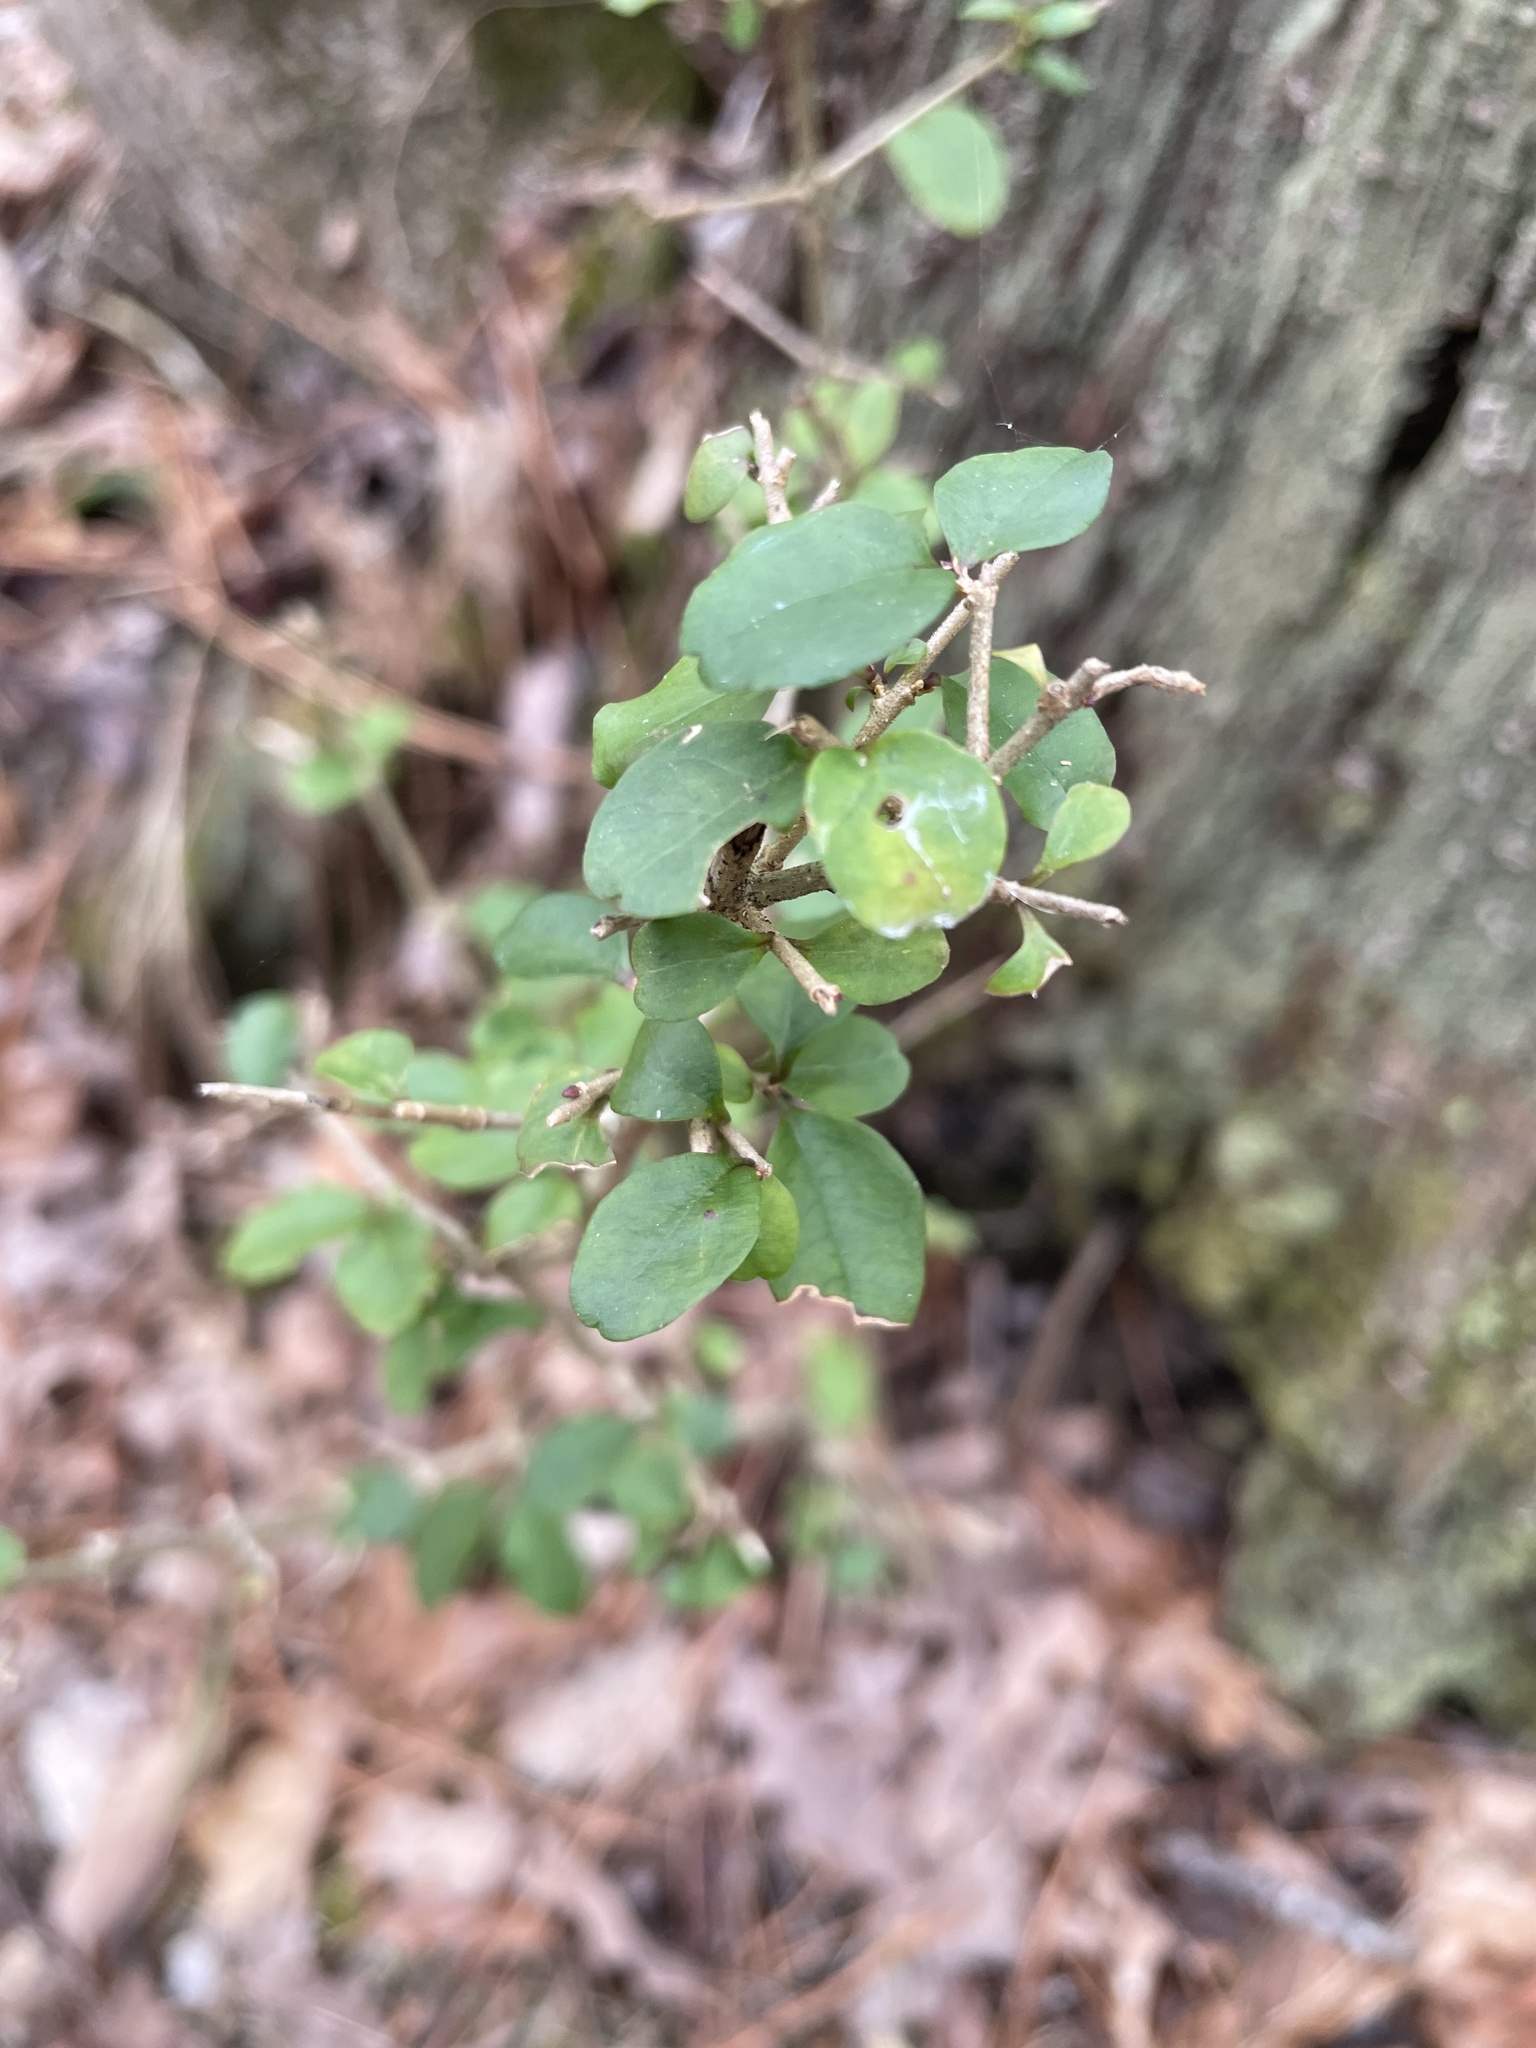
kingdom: Plantae
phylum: Tracheophyta
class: Magnoliopsida
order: Lamiales
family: Oleaceae
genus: Ligustrum
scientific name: Ligustrum sinense
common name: Chinese privet
